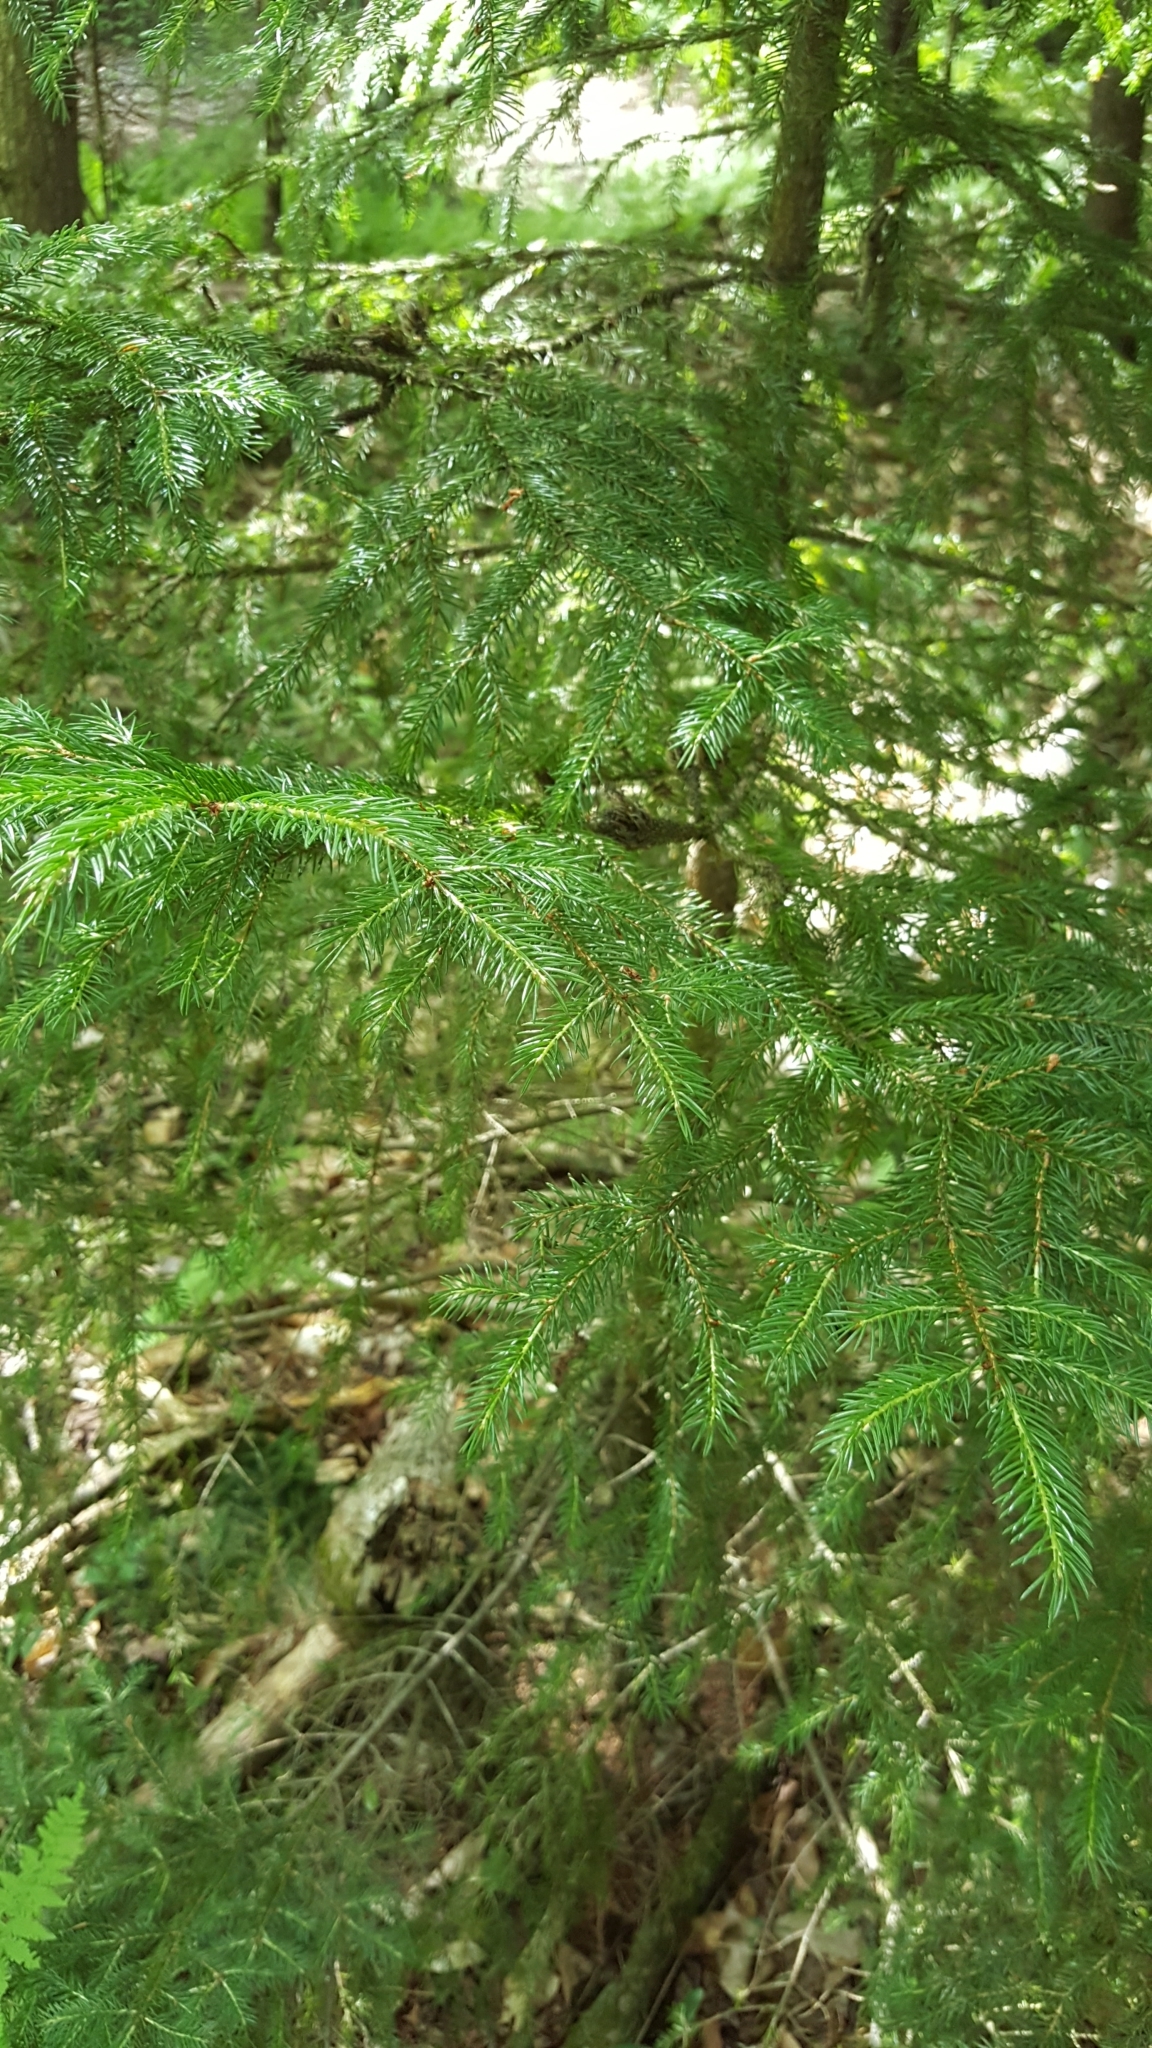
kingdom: Plantae
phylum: Tracheophyta
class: Pinopsida
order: Pinales
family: Pinaceae
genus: Picea
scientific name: Picea rubens
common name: Red spruce
